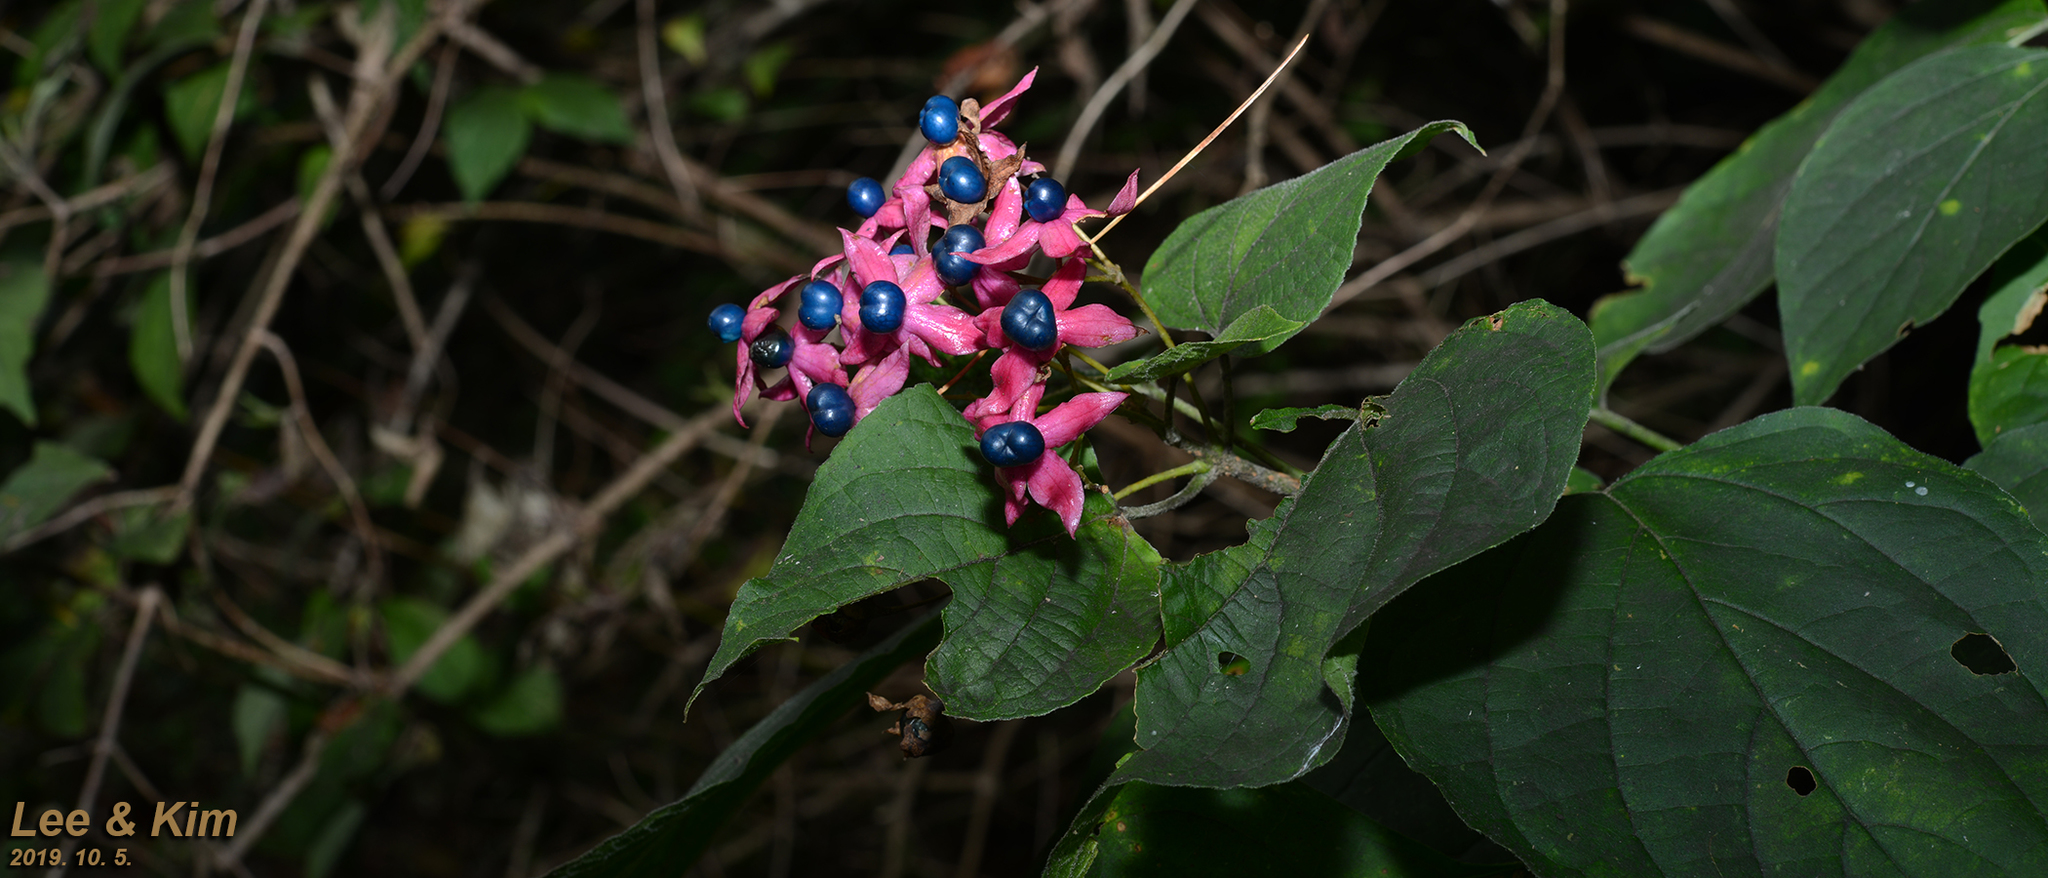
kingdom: Plantae
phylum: Tracheophyta
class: Magnoliopsida
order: Lamiales
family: Lamiaceae
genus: Clerodendrum
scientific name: Clerodendrum trichotomum
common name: Harlequin glorybower
